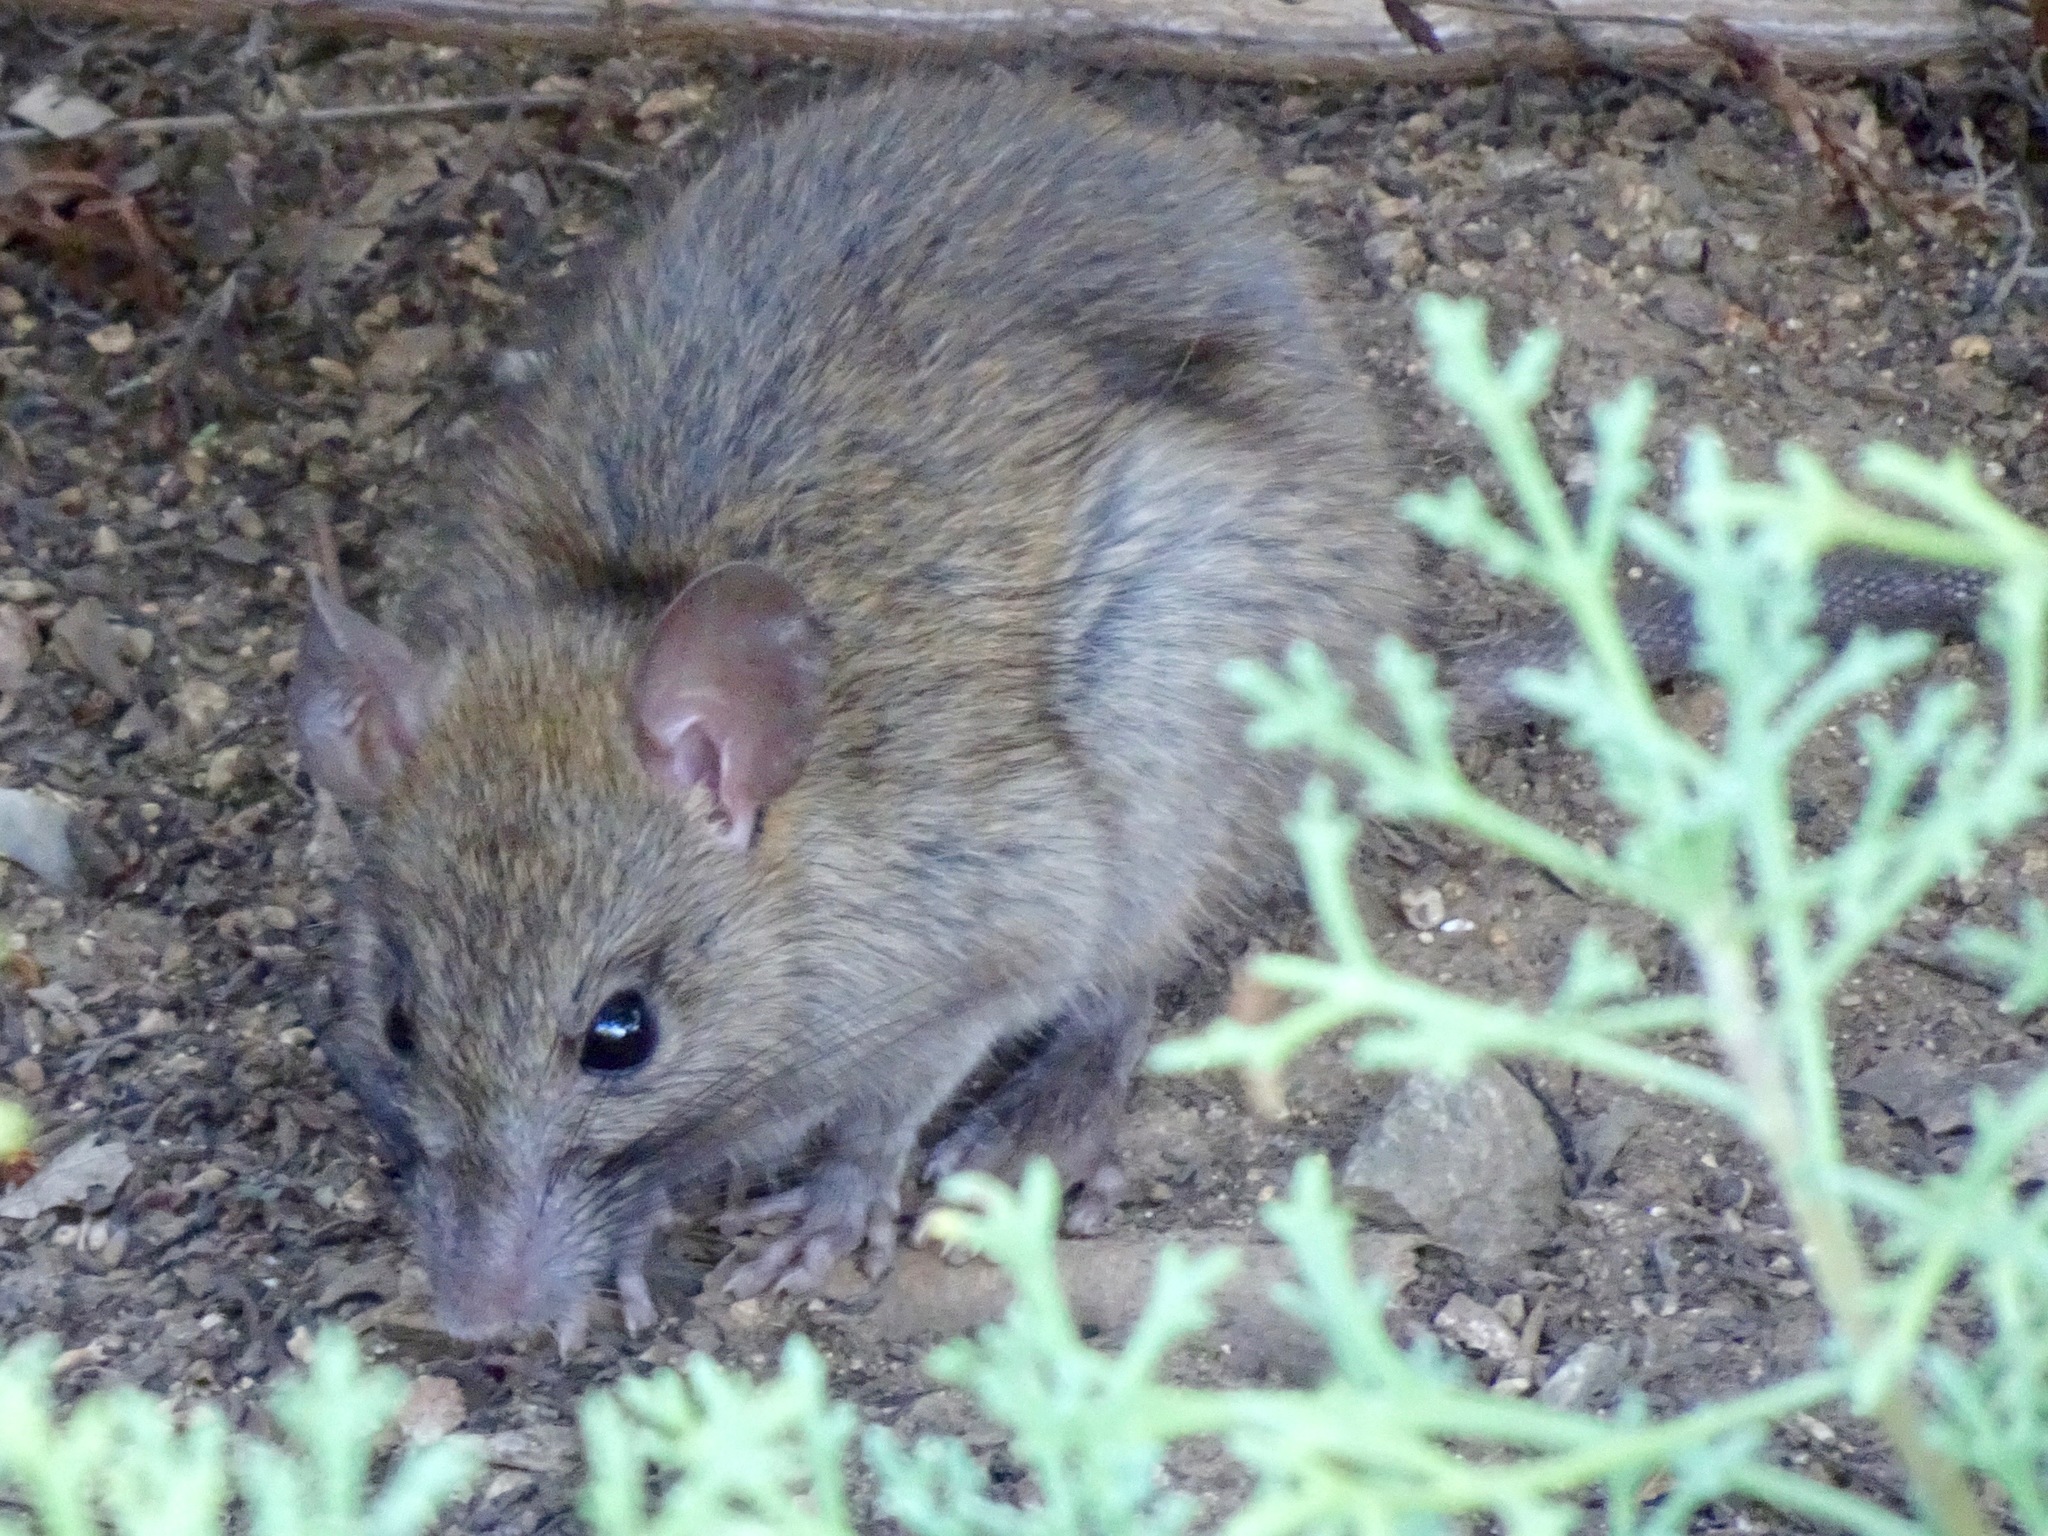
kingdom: Animalia
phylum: Chordata
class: Mammalia
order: Rodentia
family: Muridae
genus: Rattus
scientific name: Rattus norvegicus
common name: Brown rat
